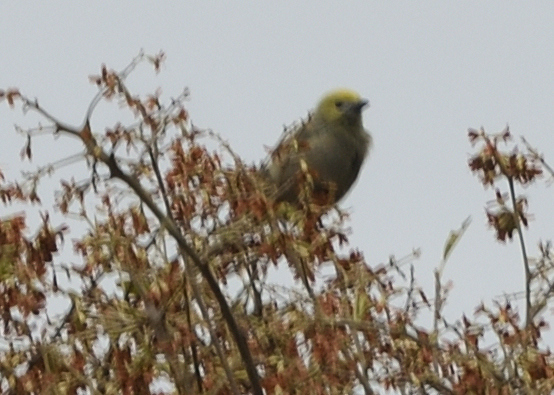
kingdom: Animalia
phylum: Chordata
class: Aves
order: Passeriformes
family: Thraupidae
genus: Thraupis
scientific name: Thraupis palmarum
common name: Palm tanager
